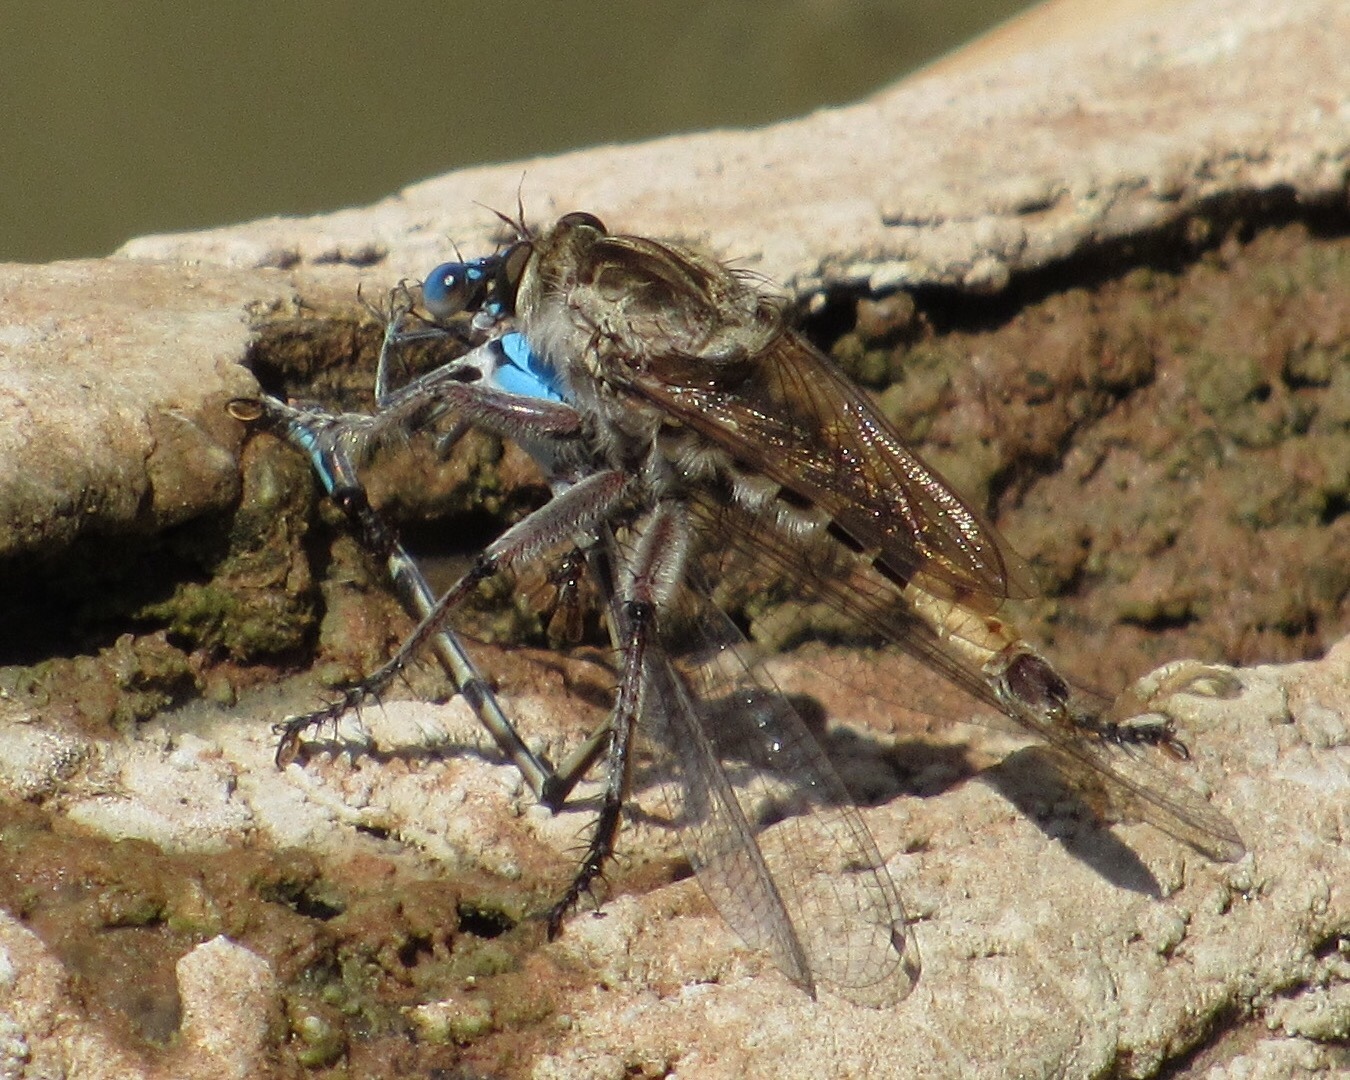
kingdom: Animalia
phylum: Arthropoda
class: Insecta
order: Diptera
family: Asilidae
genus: Triorla
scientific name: Triorla interrupta
